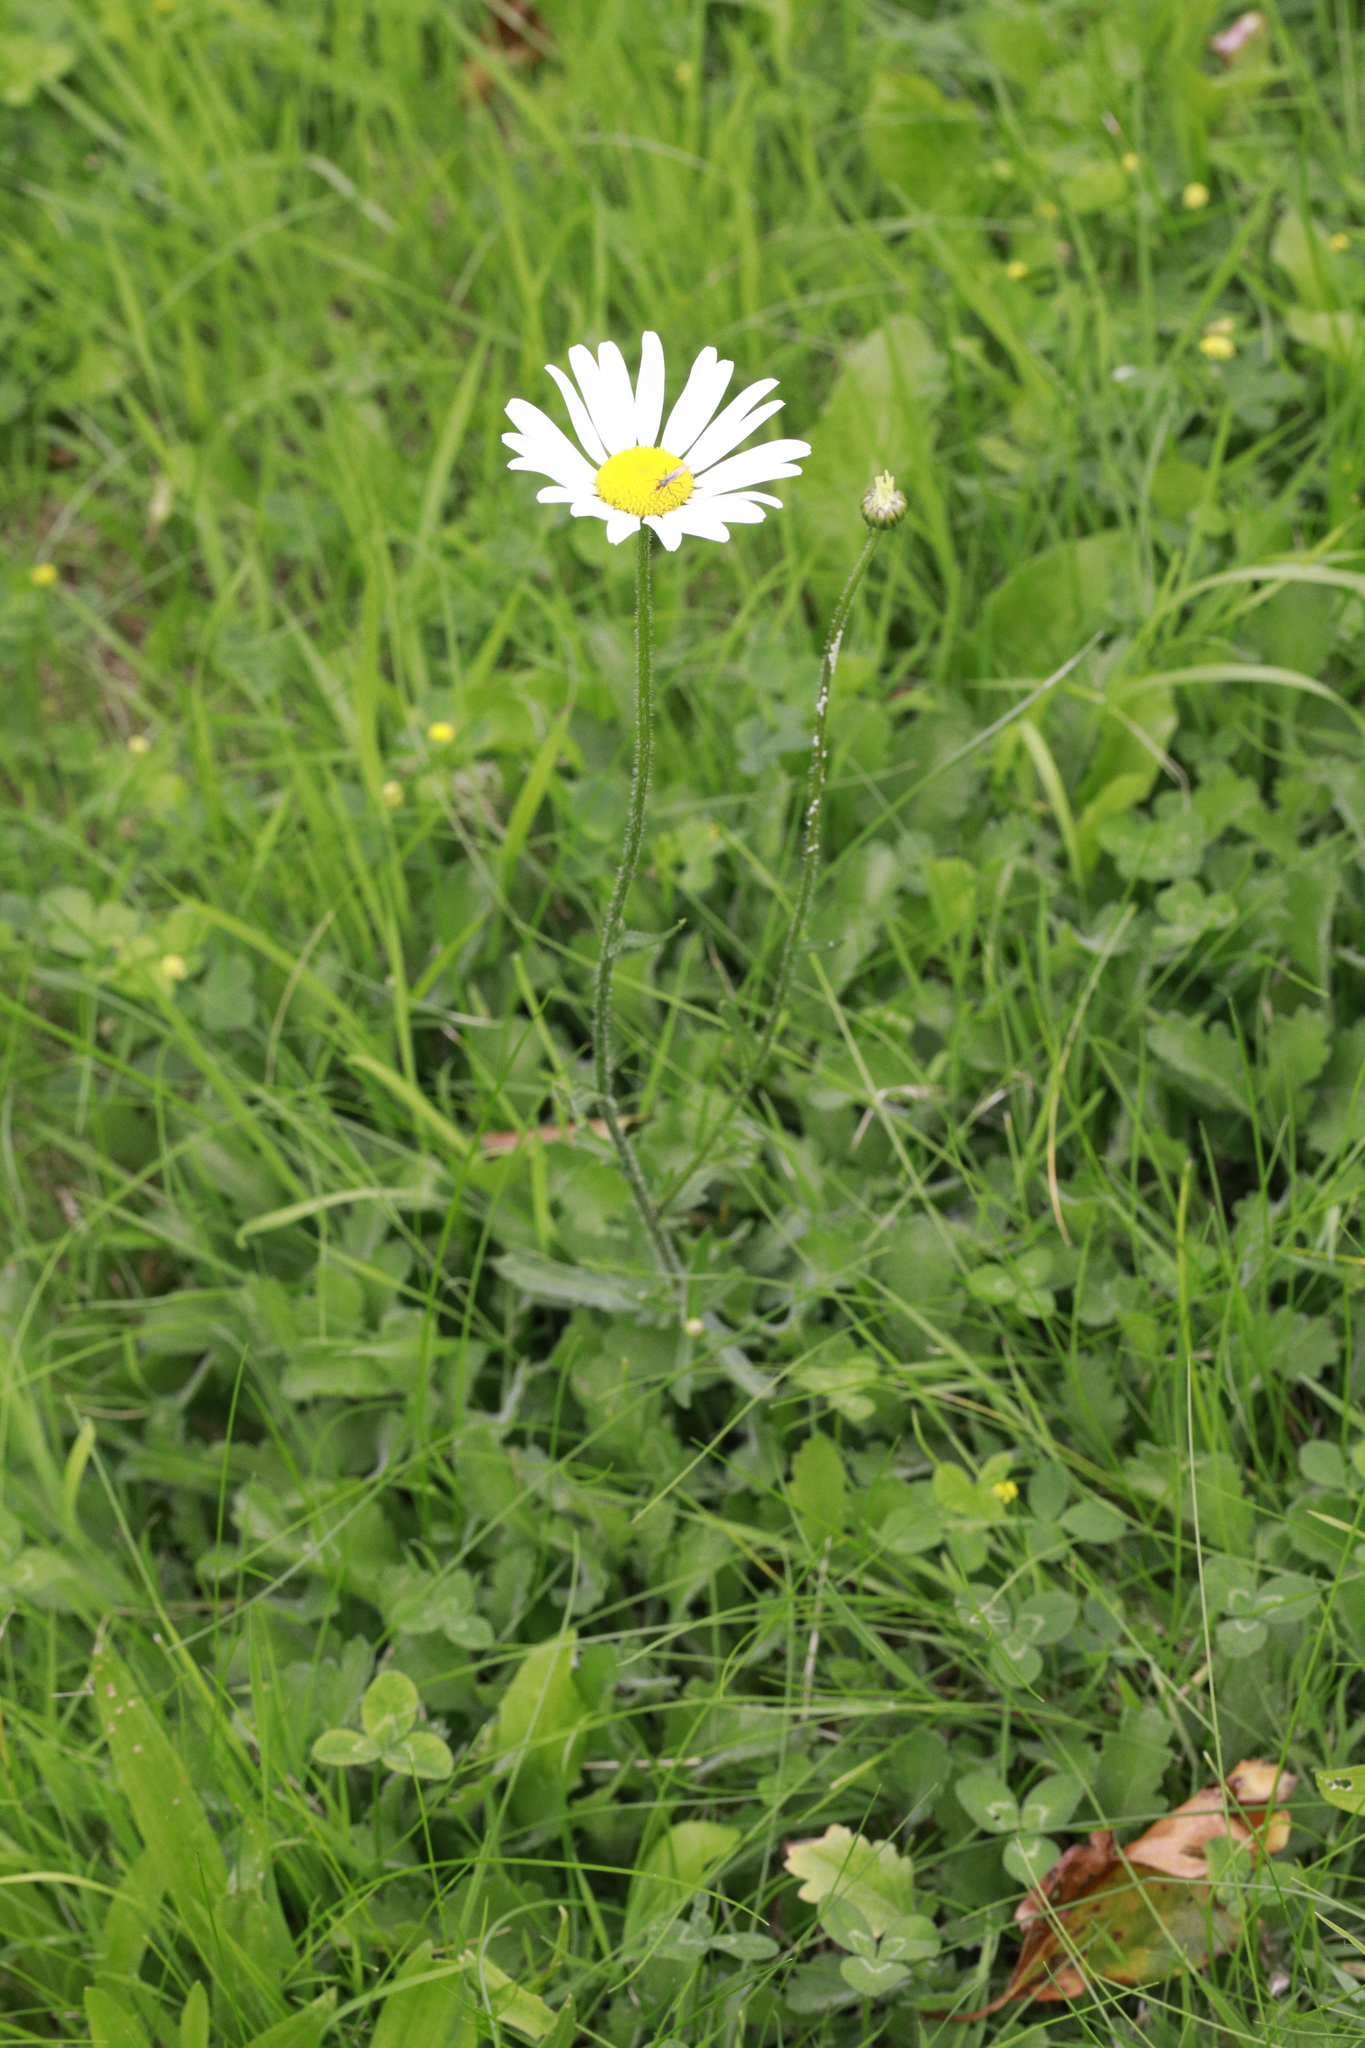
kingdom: Plantae
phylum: Tracheophyta
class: Magnoliopsida
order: Asterales
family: Asteraceae
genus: Leucanthemum
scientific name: Leucanthemum vulgare
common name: Oxeye daisy
